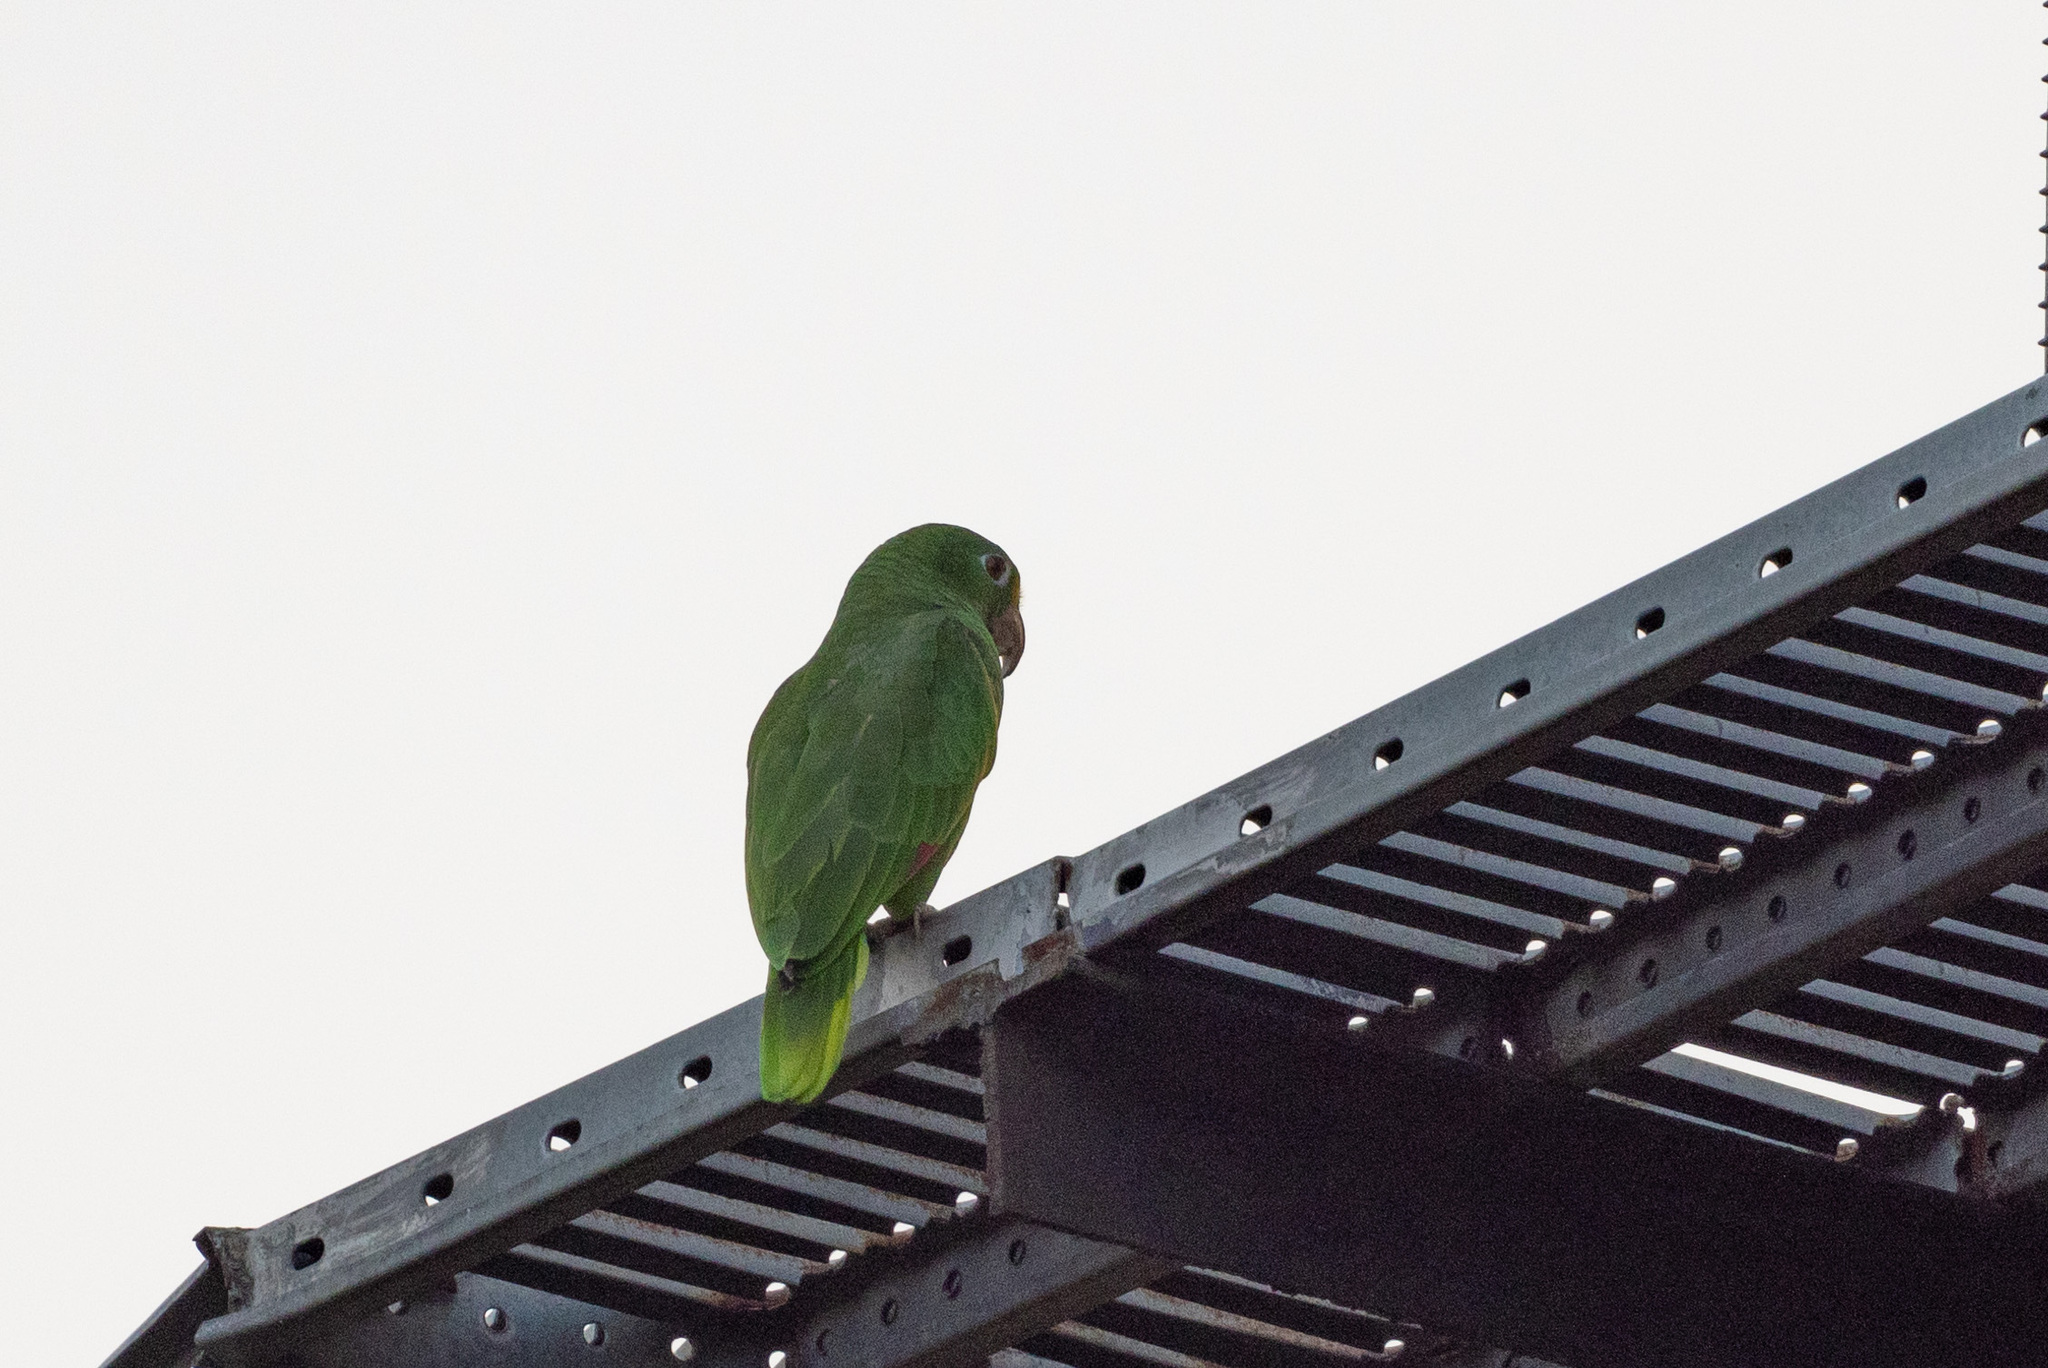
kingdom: Animalia
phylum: Chordata
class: Aves
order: Psittaciformes
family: Psittacidae
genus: Amazona
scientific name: Amazona ochrocephala
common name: Yellow-crowned amazon
